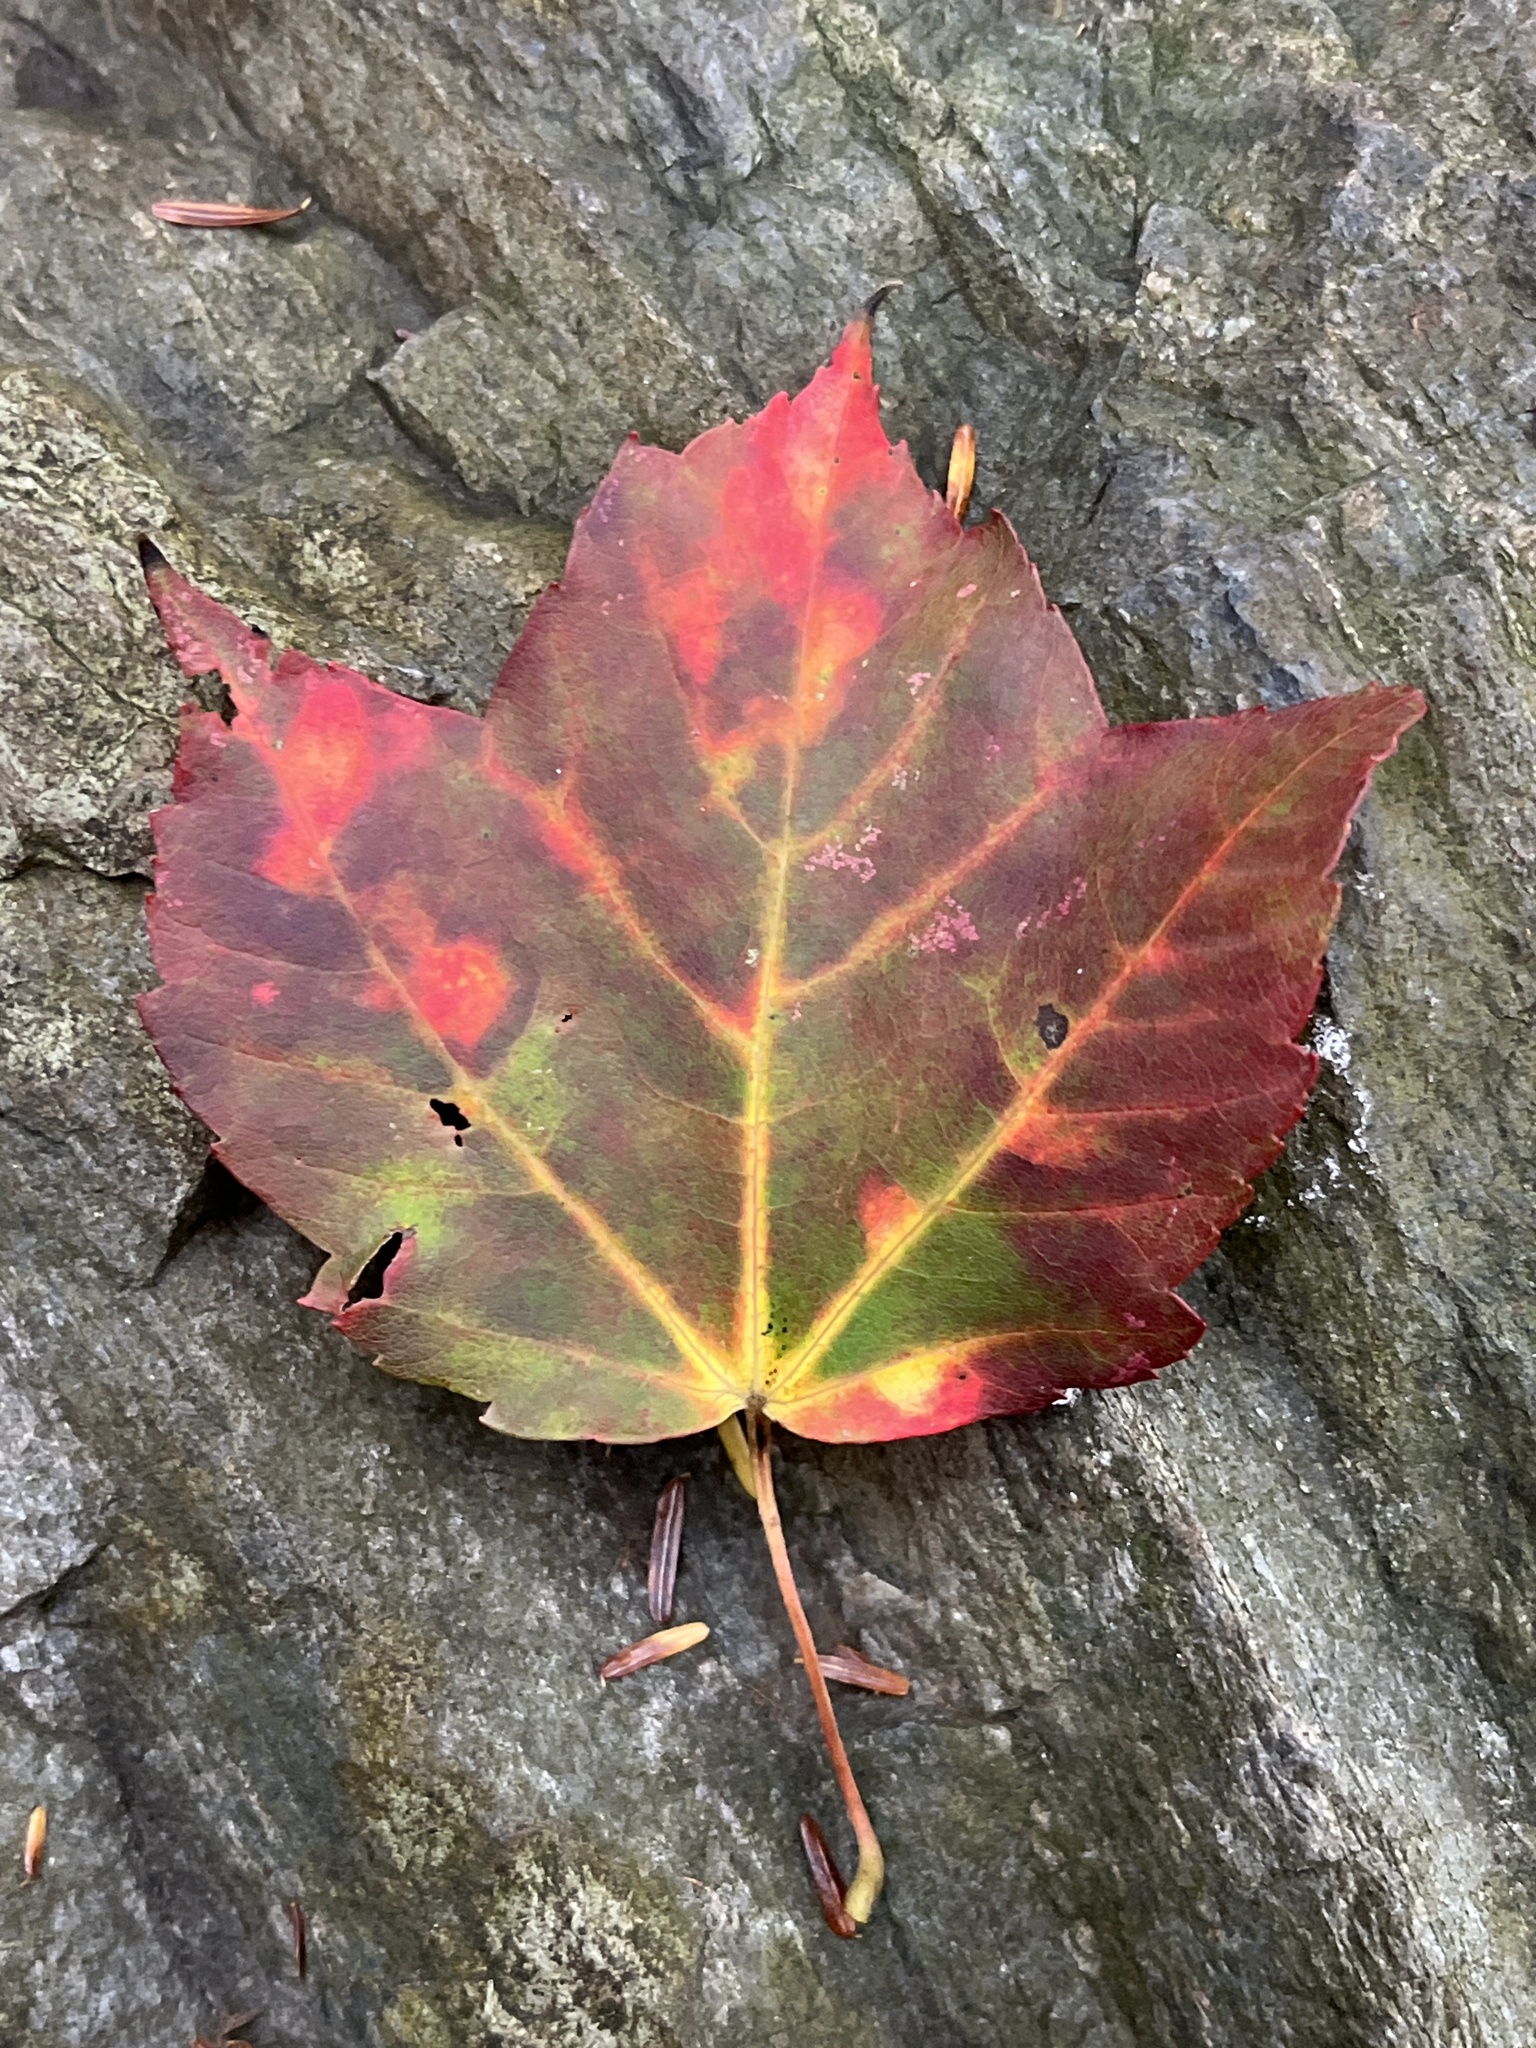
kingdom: Plantae
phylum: Tracheophyta
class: Magnoliopsida
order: Sapindales
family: Sapindaceae
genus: Acer
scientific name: Acer rubrum
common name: Red maple
